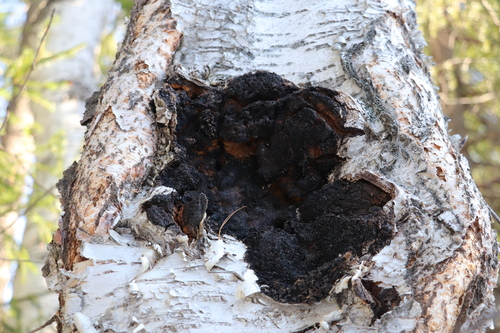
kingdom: Fungi
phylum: Basidiomycota
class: Agaricomycetes
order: Hymenochaetales
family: Hymenochaetaceae
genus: Inonotus
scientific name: Inonotus obliquus
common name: Chaga
